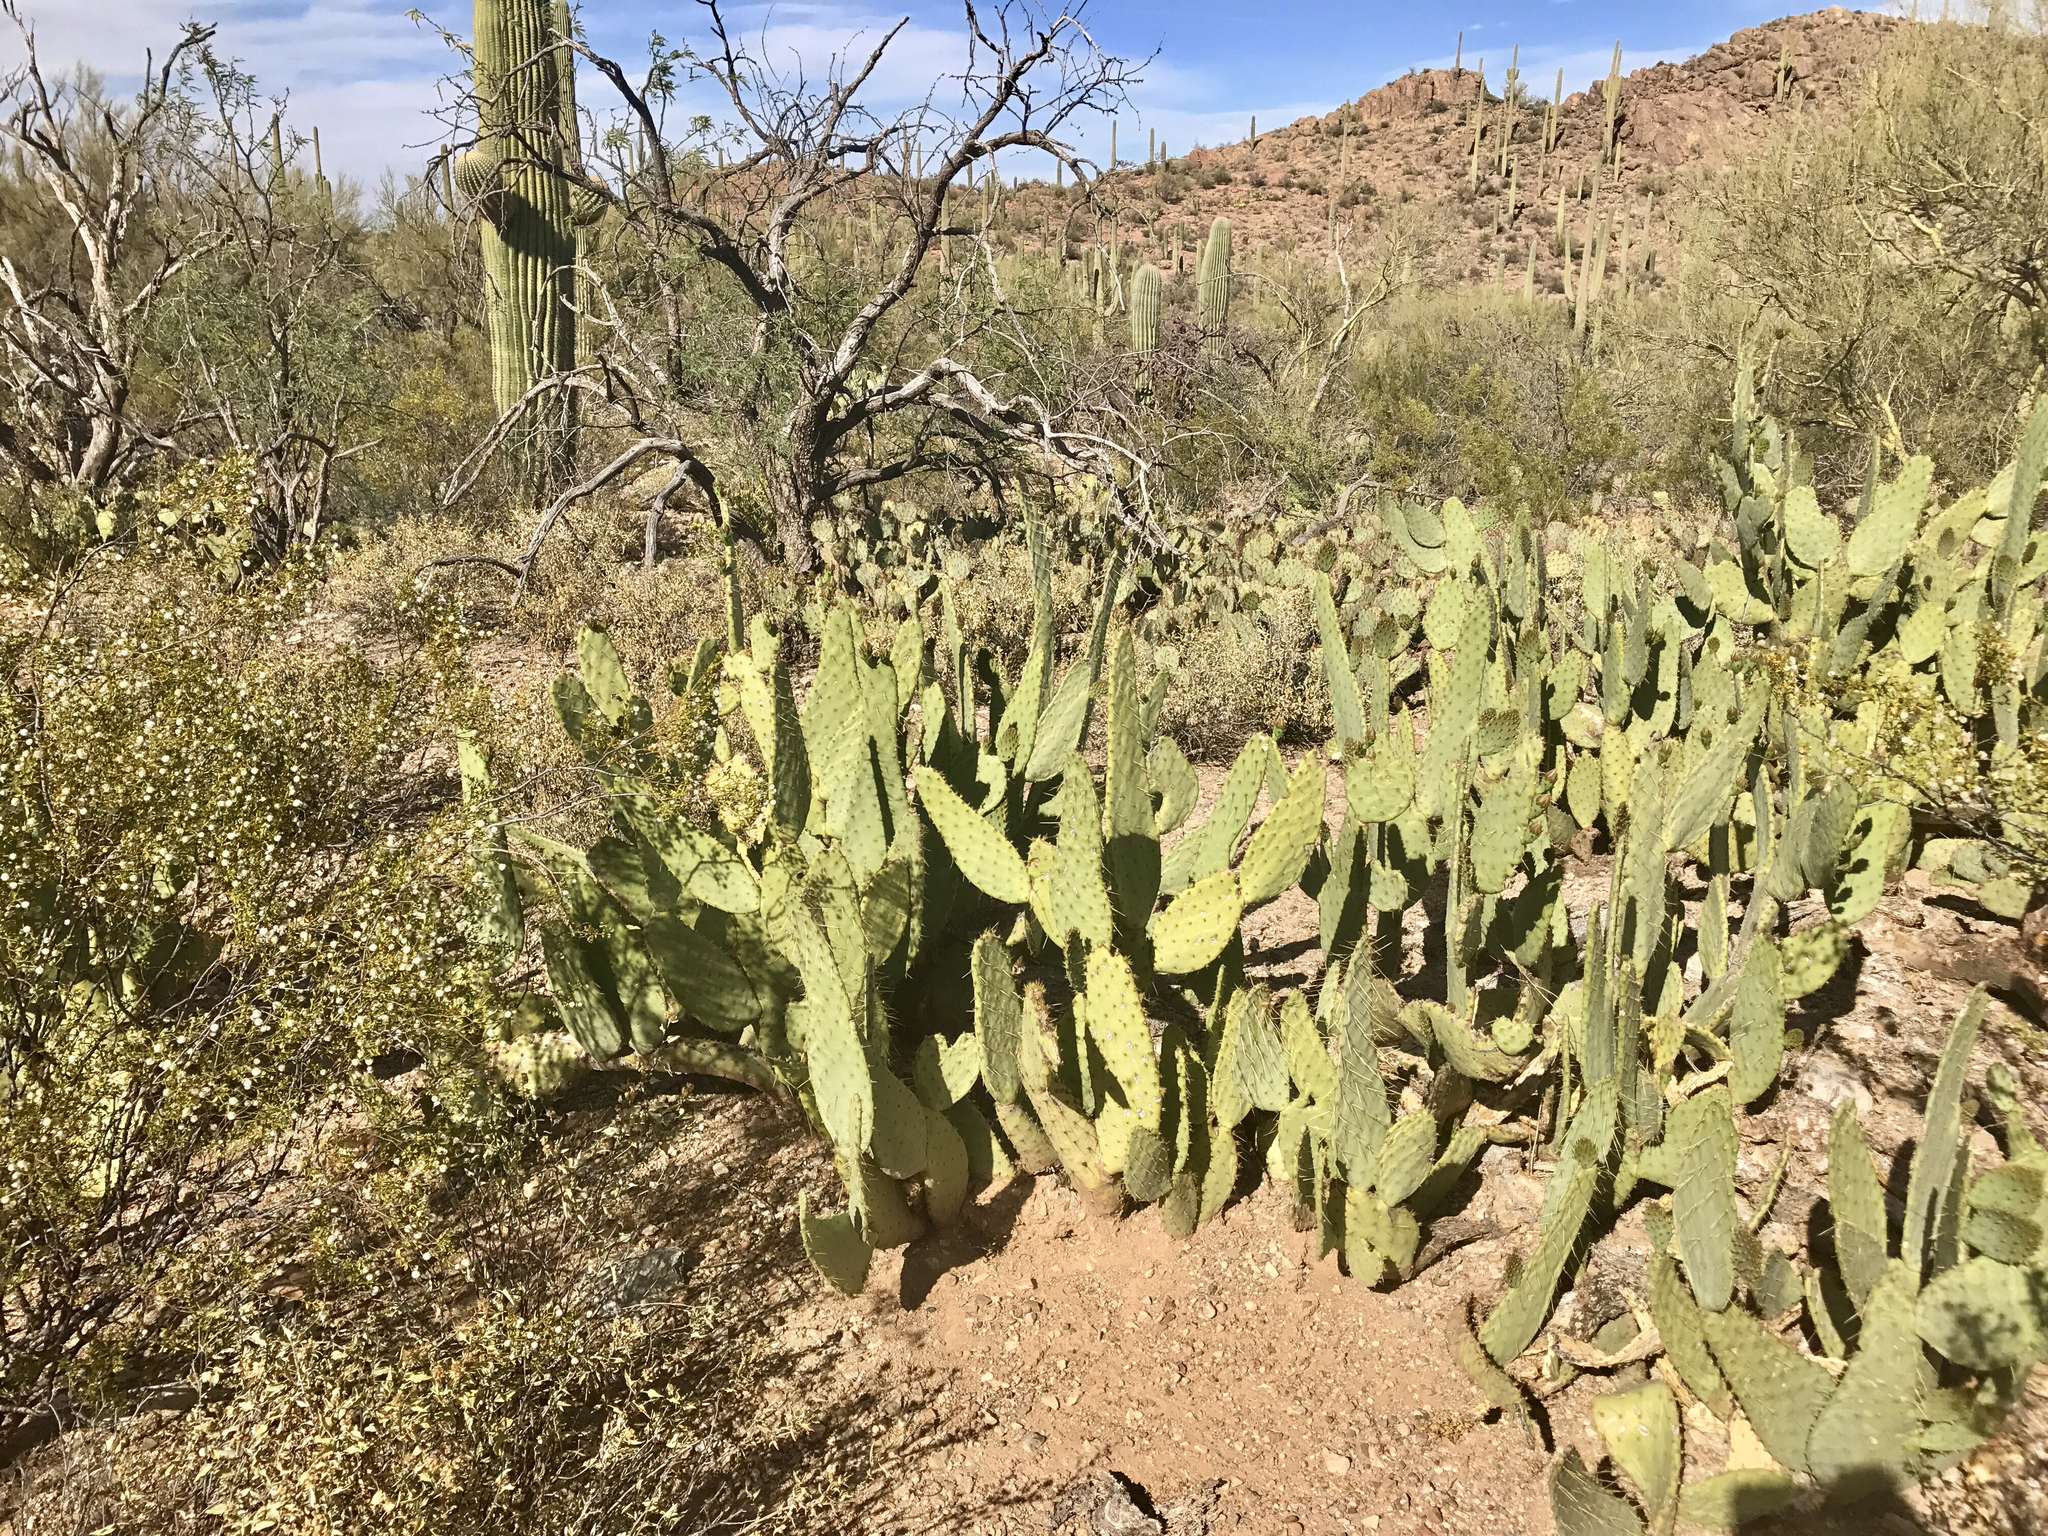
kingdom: Plantae
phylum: Tracheophyta
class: Magnoliopsida
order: Caryophyllales
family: Cactaceae
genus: Opuntia
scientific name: Opuntia engelmannii
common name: Cactus-apple
